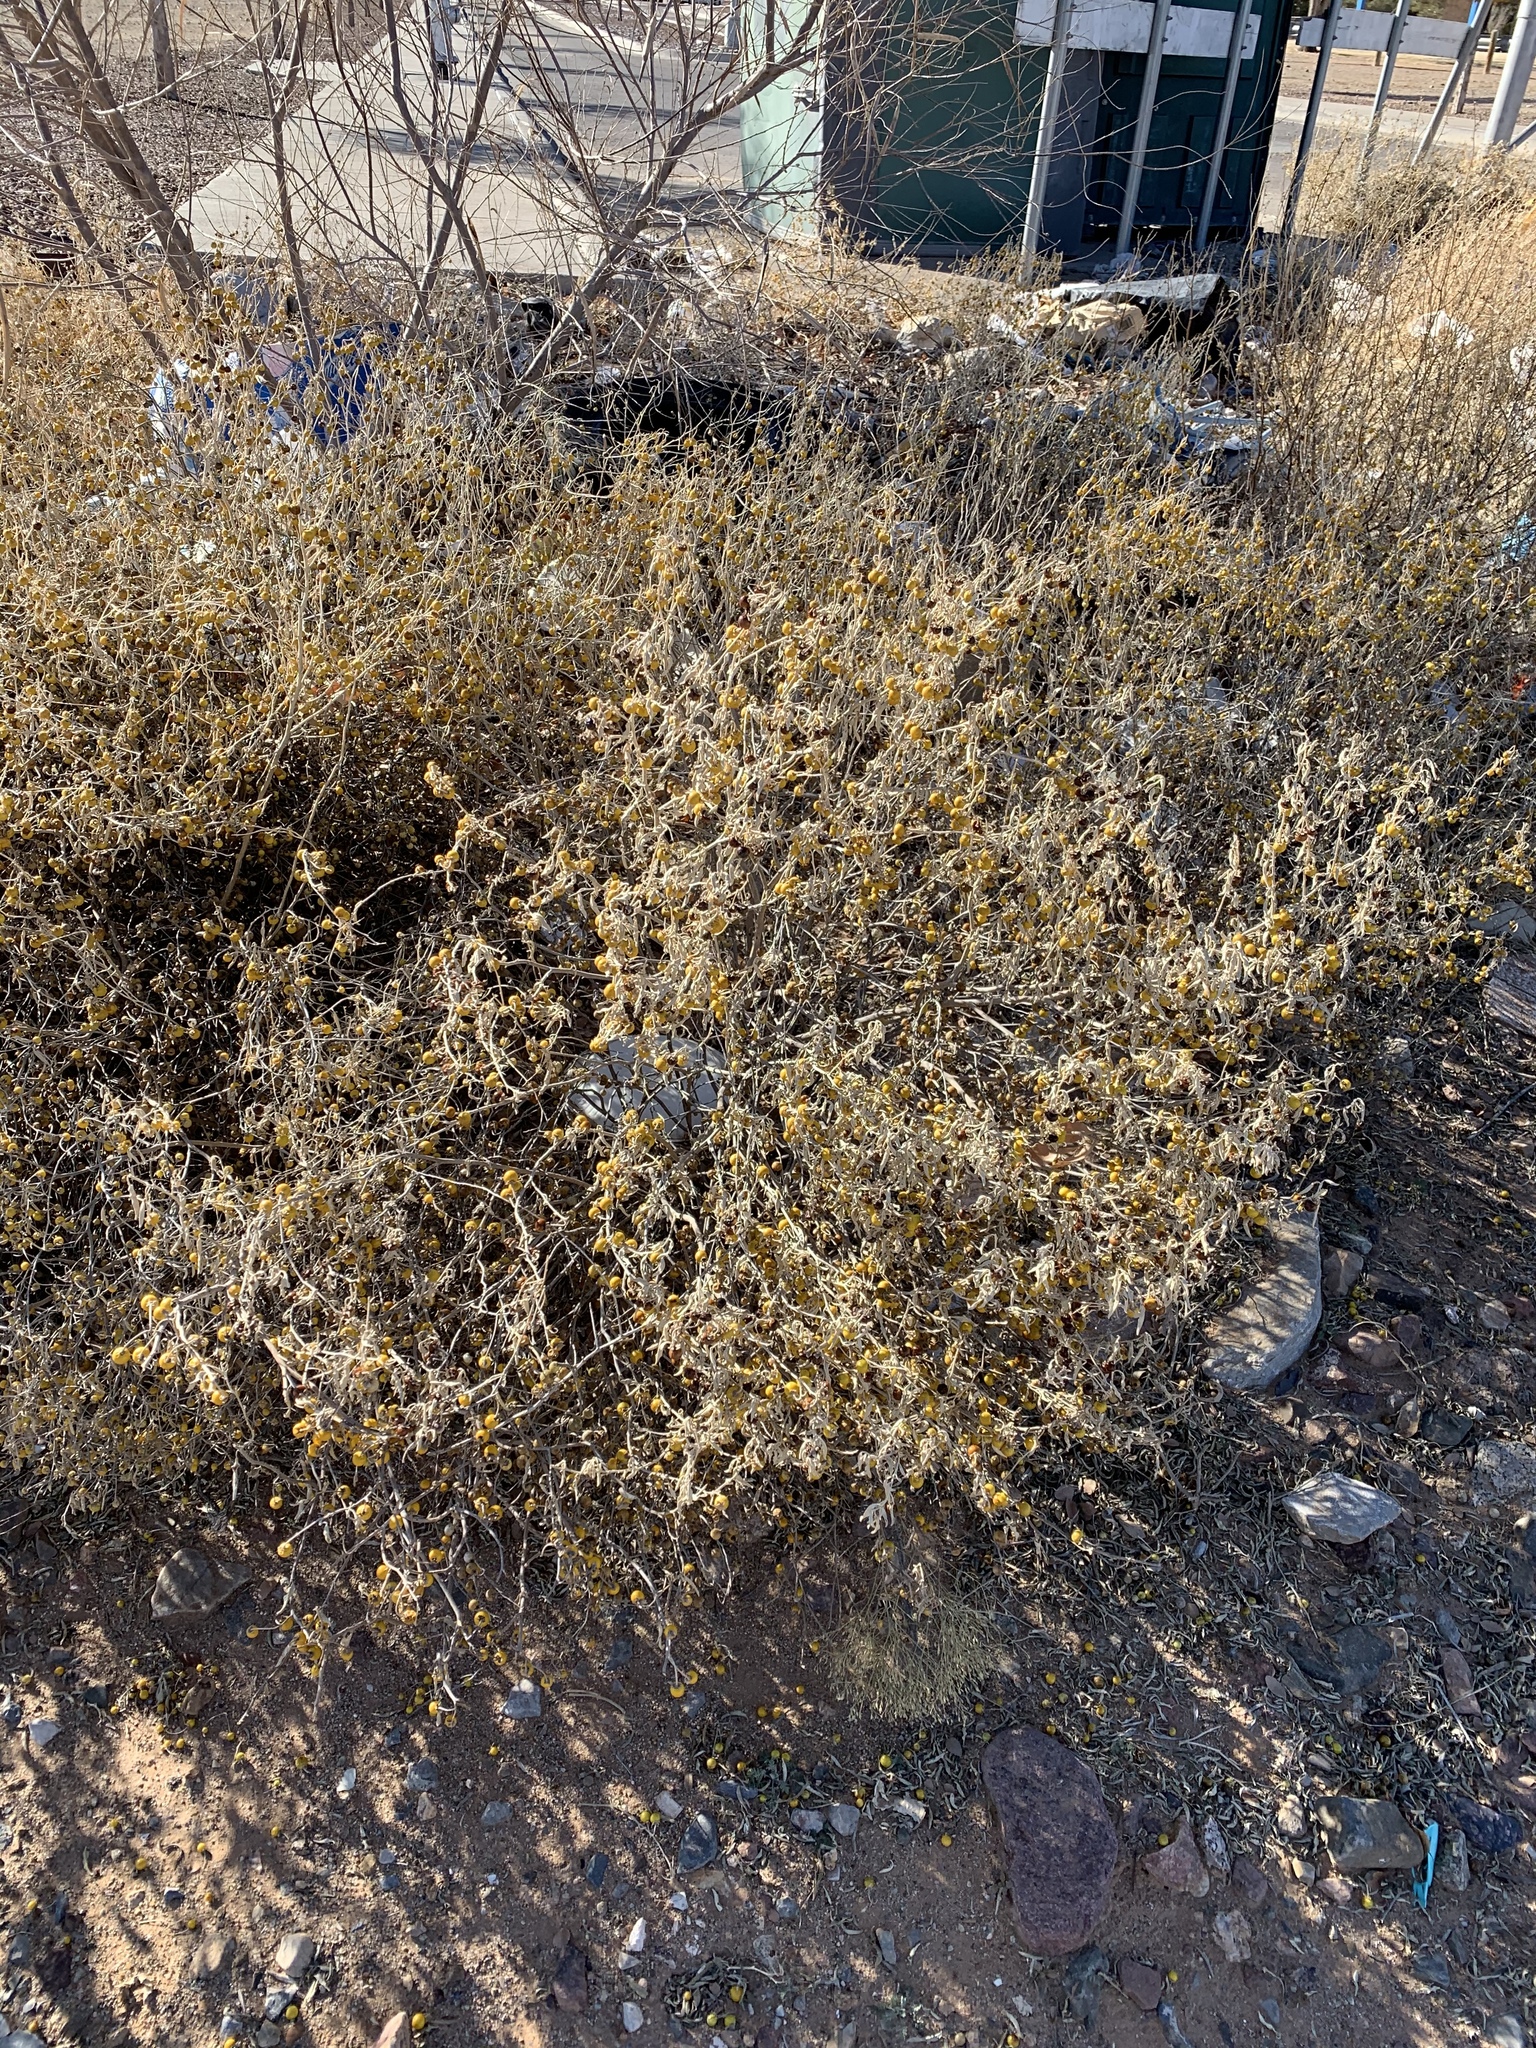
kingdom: Plantae
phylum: Tracheophyta
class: Magnoliopsida
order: Solanales
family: Solanaceae
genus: Solanum
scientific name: Solanum elaeagnifolium
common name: Silverleaf nightshade
